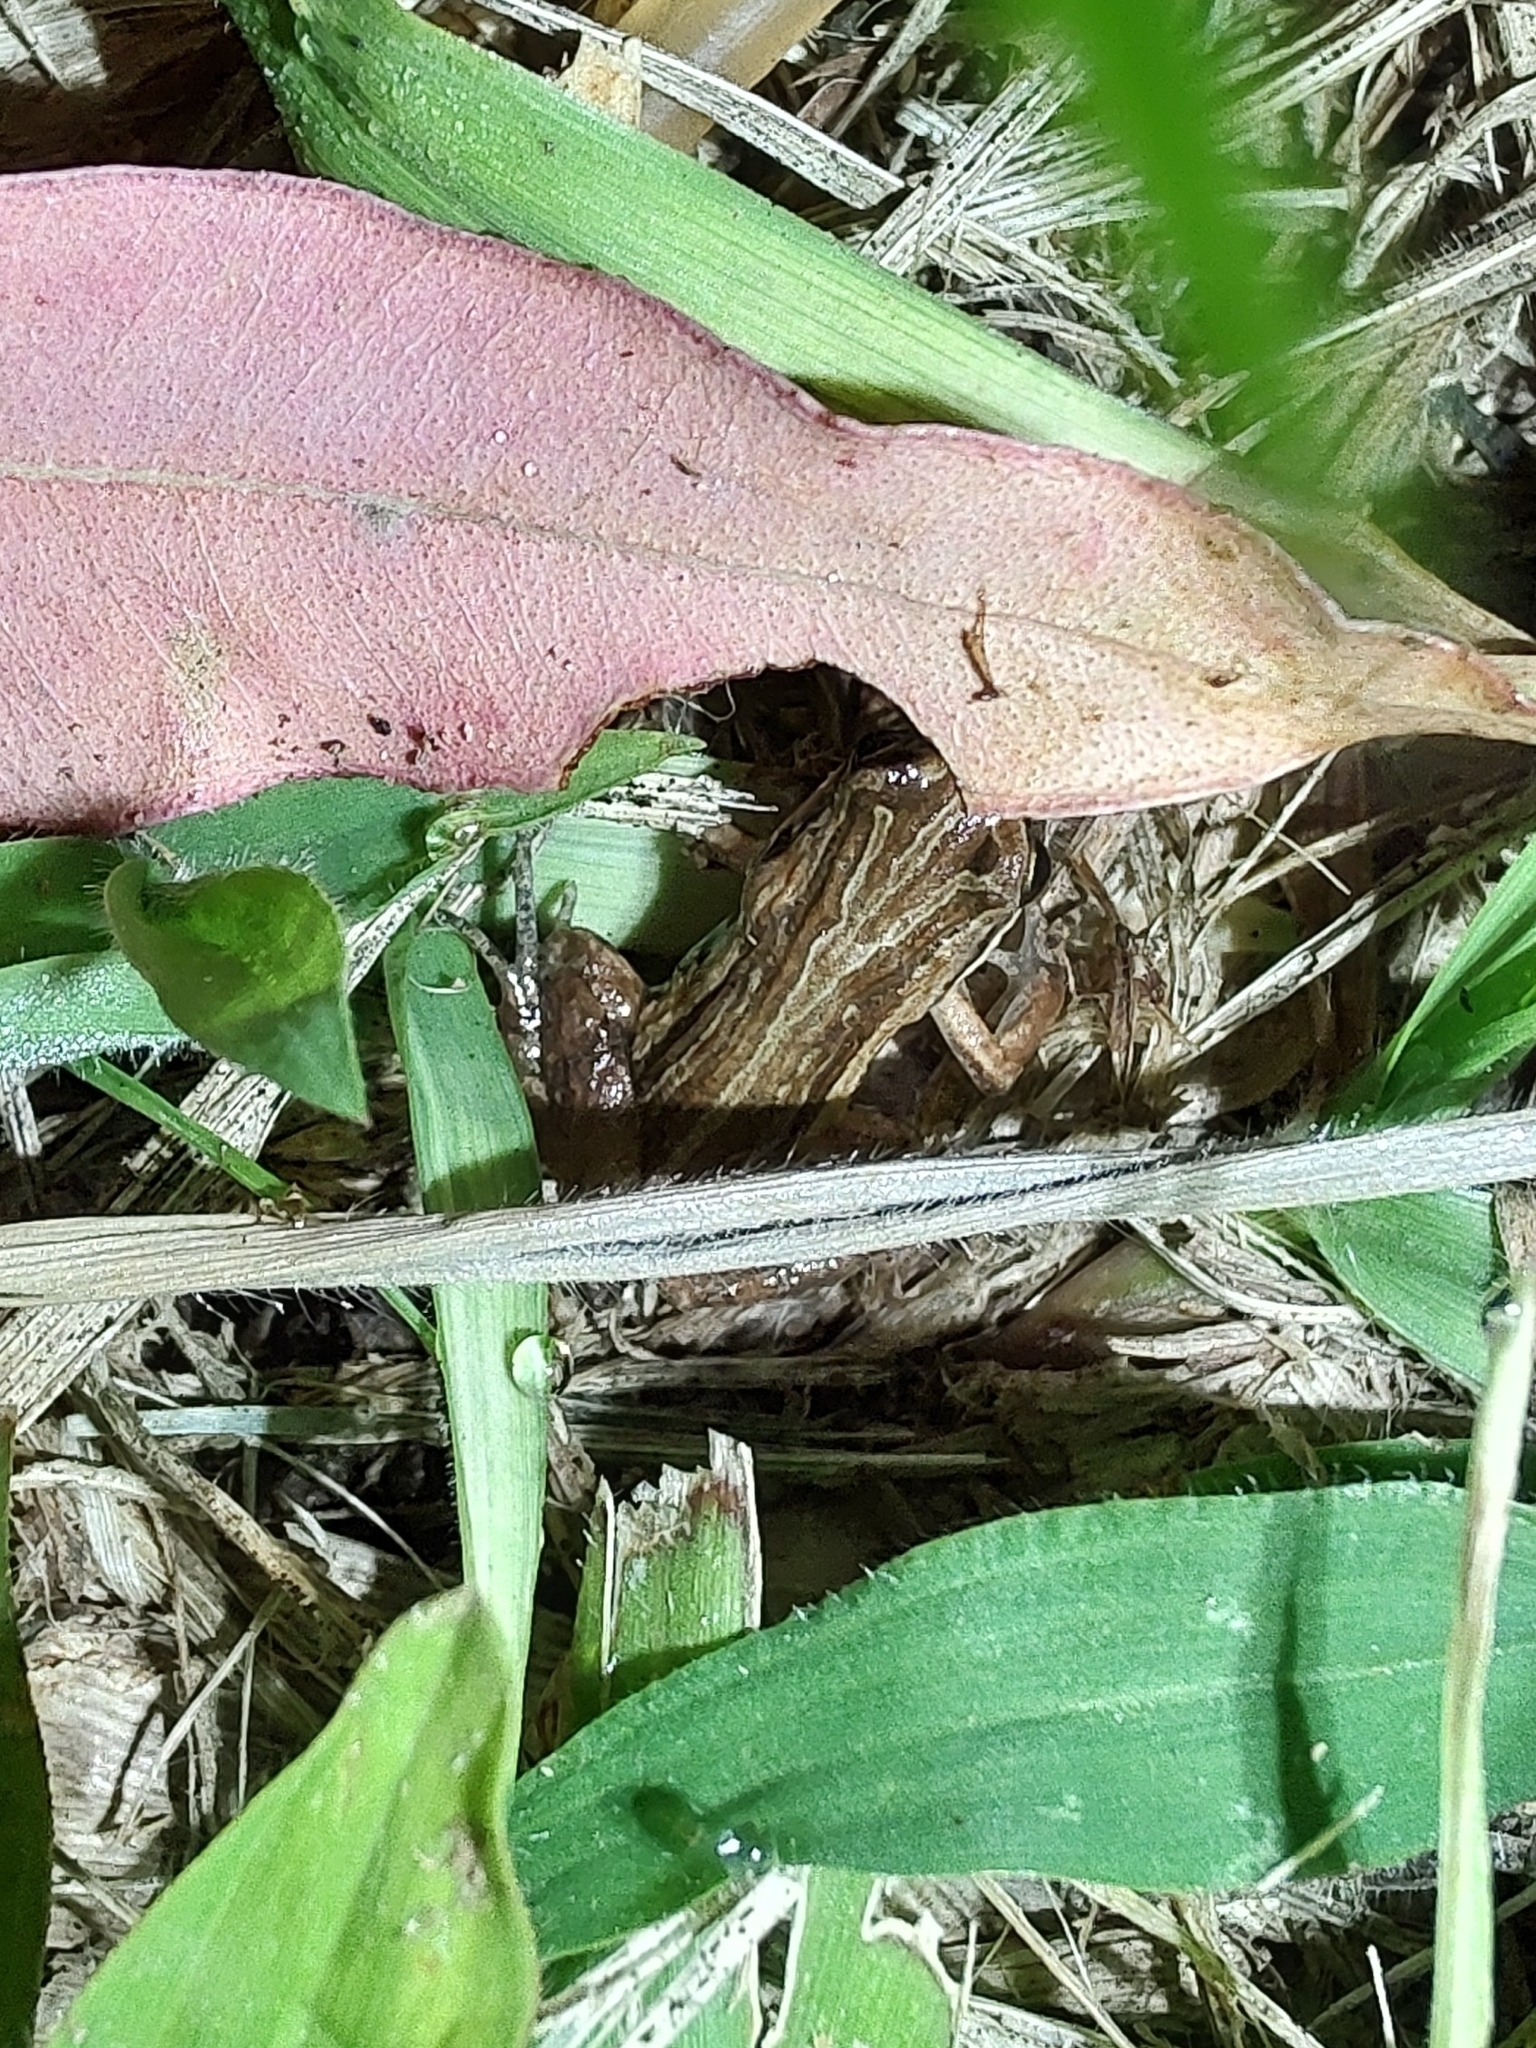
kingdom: Animalia
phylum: Chordata
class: Amphibia
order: Anura
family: Leptodactylidae
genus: Physalaemus
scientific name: Physalaemus henselii
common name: Hensel's dwarf frog
